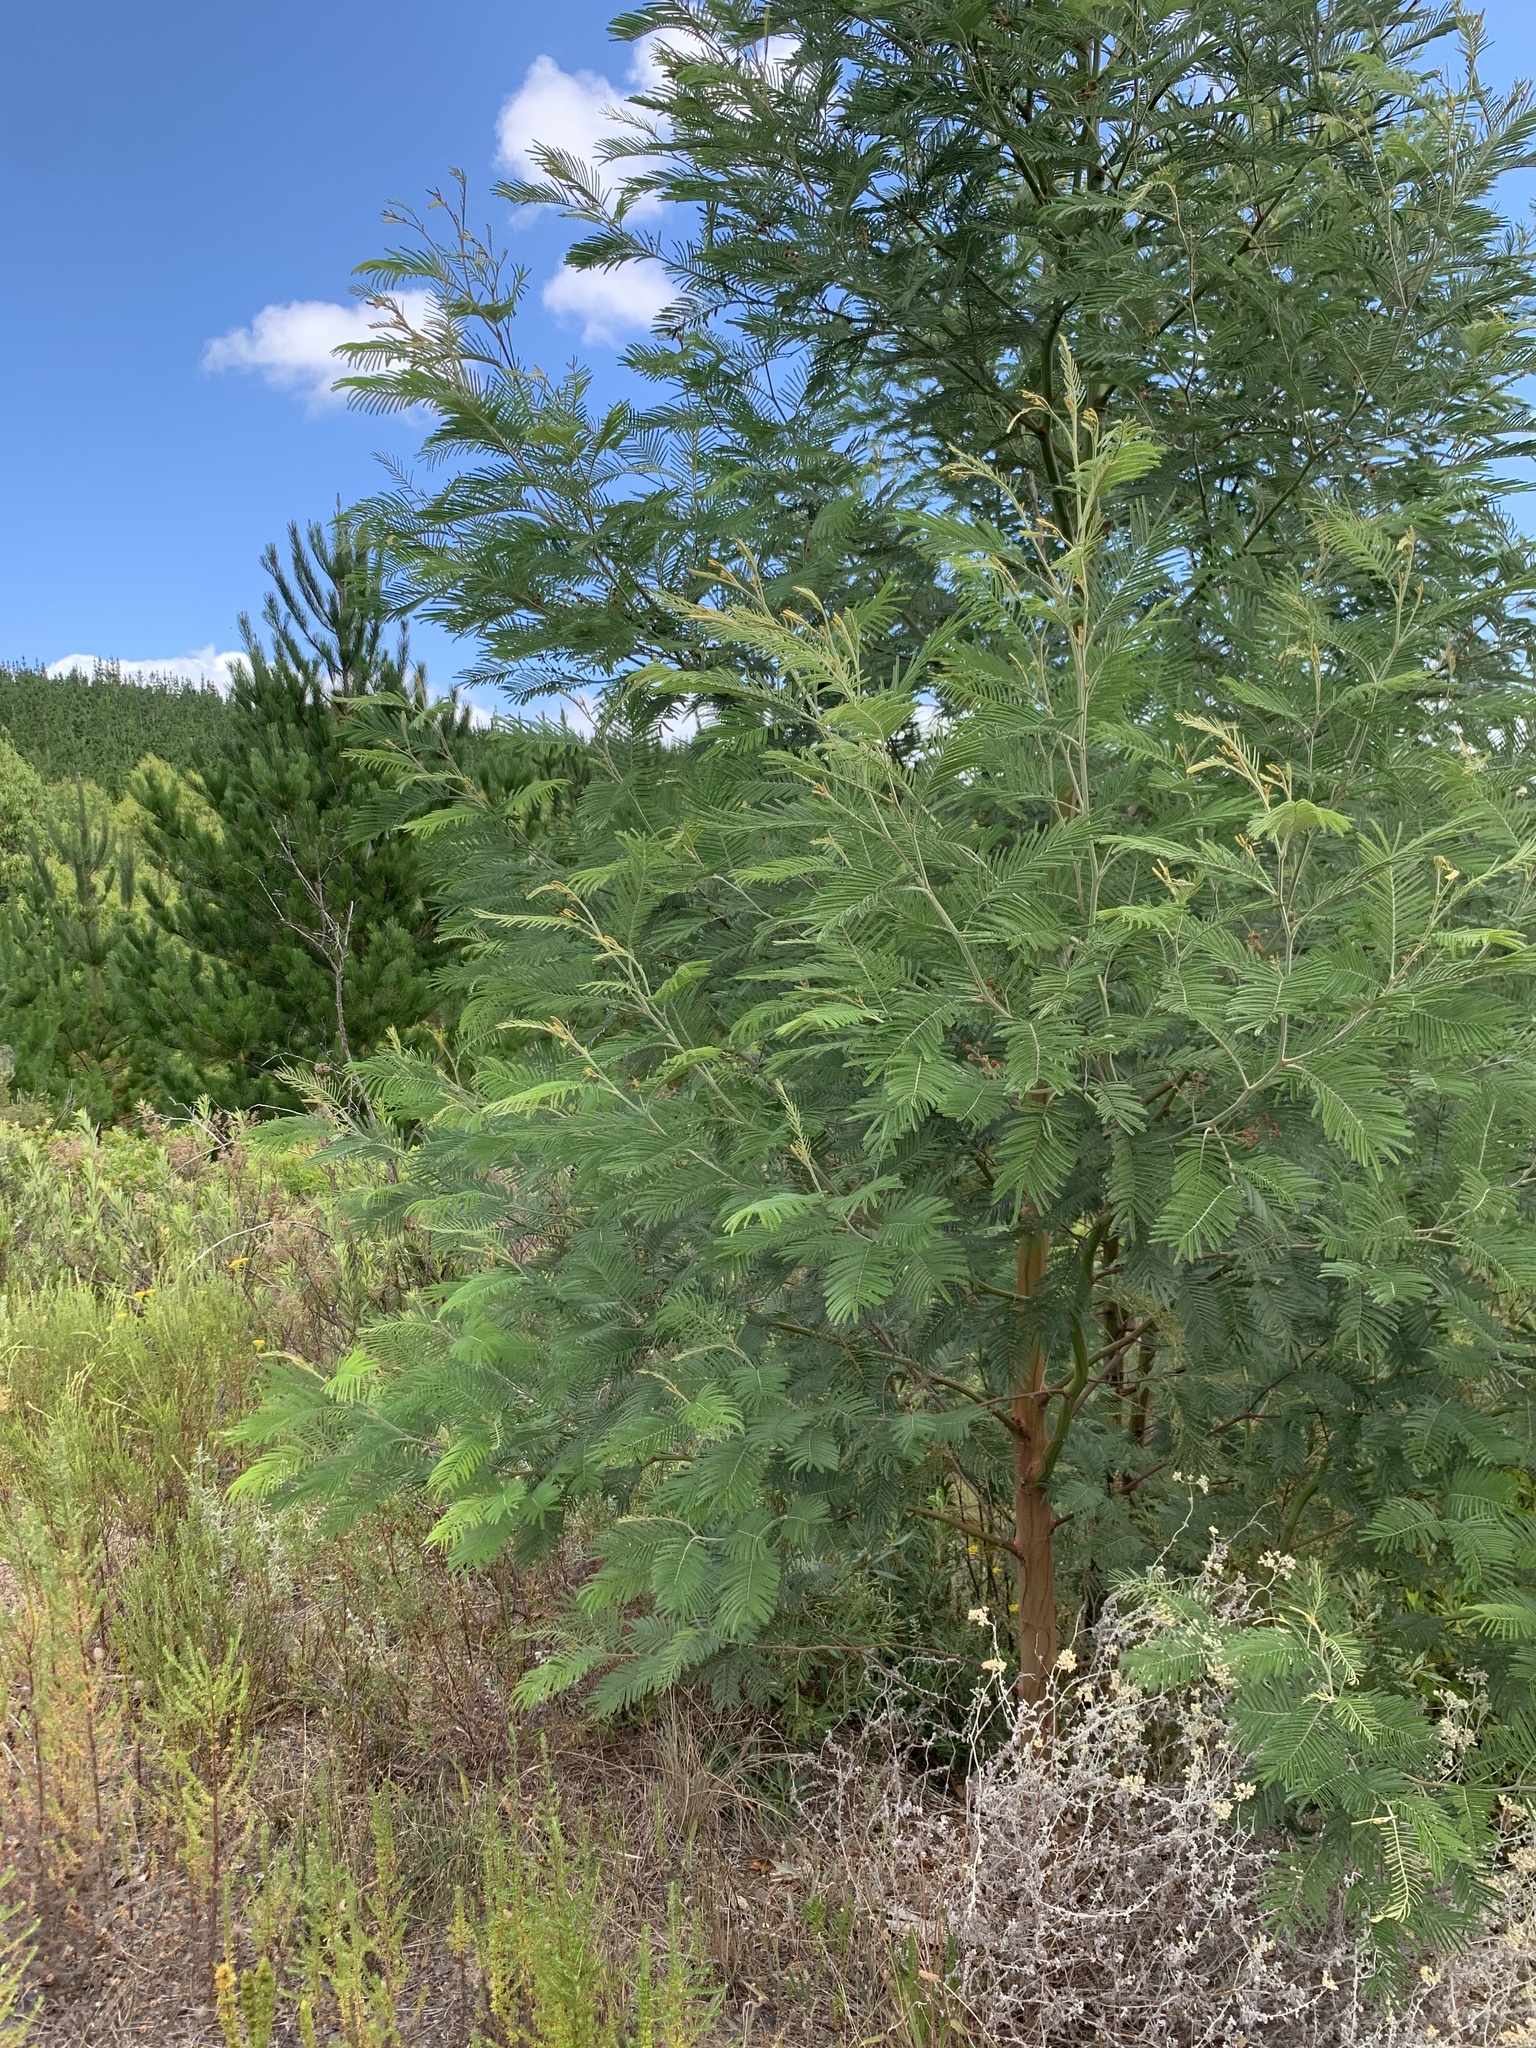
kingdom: Plantae
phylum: Tracheophyta
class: Magnoliopsida
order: Fabales
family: Fabaceae
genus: Acacia
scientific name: Acacia mearnsii
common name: Black wattle
